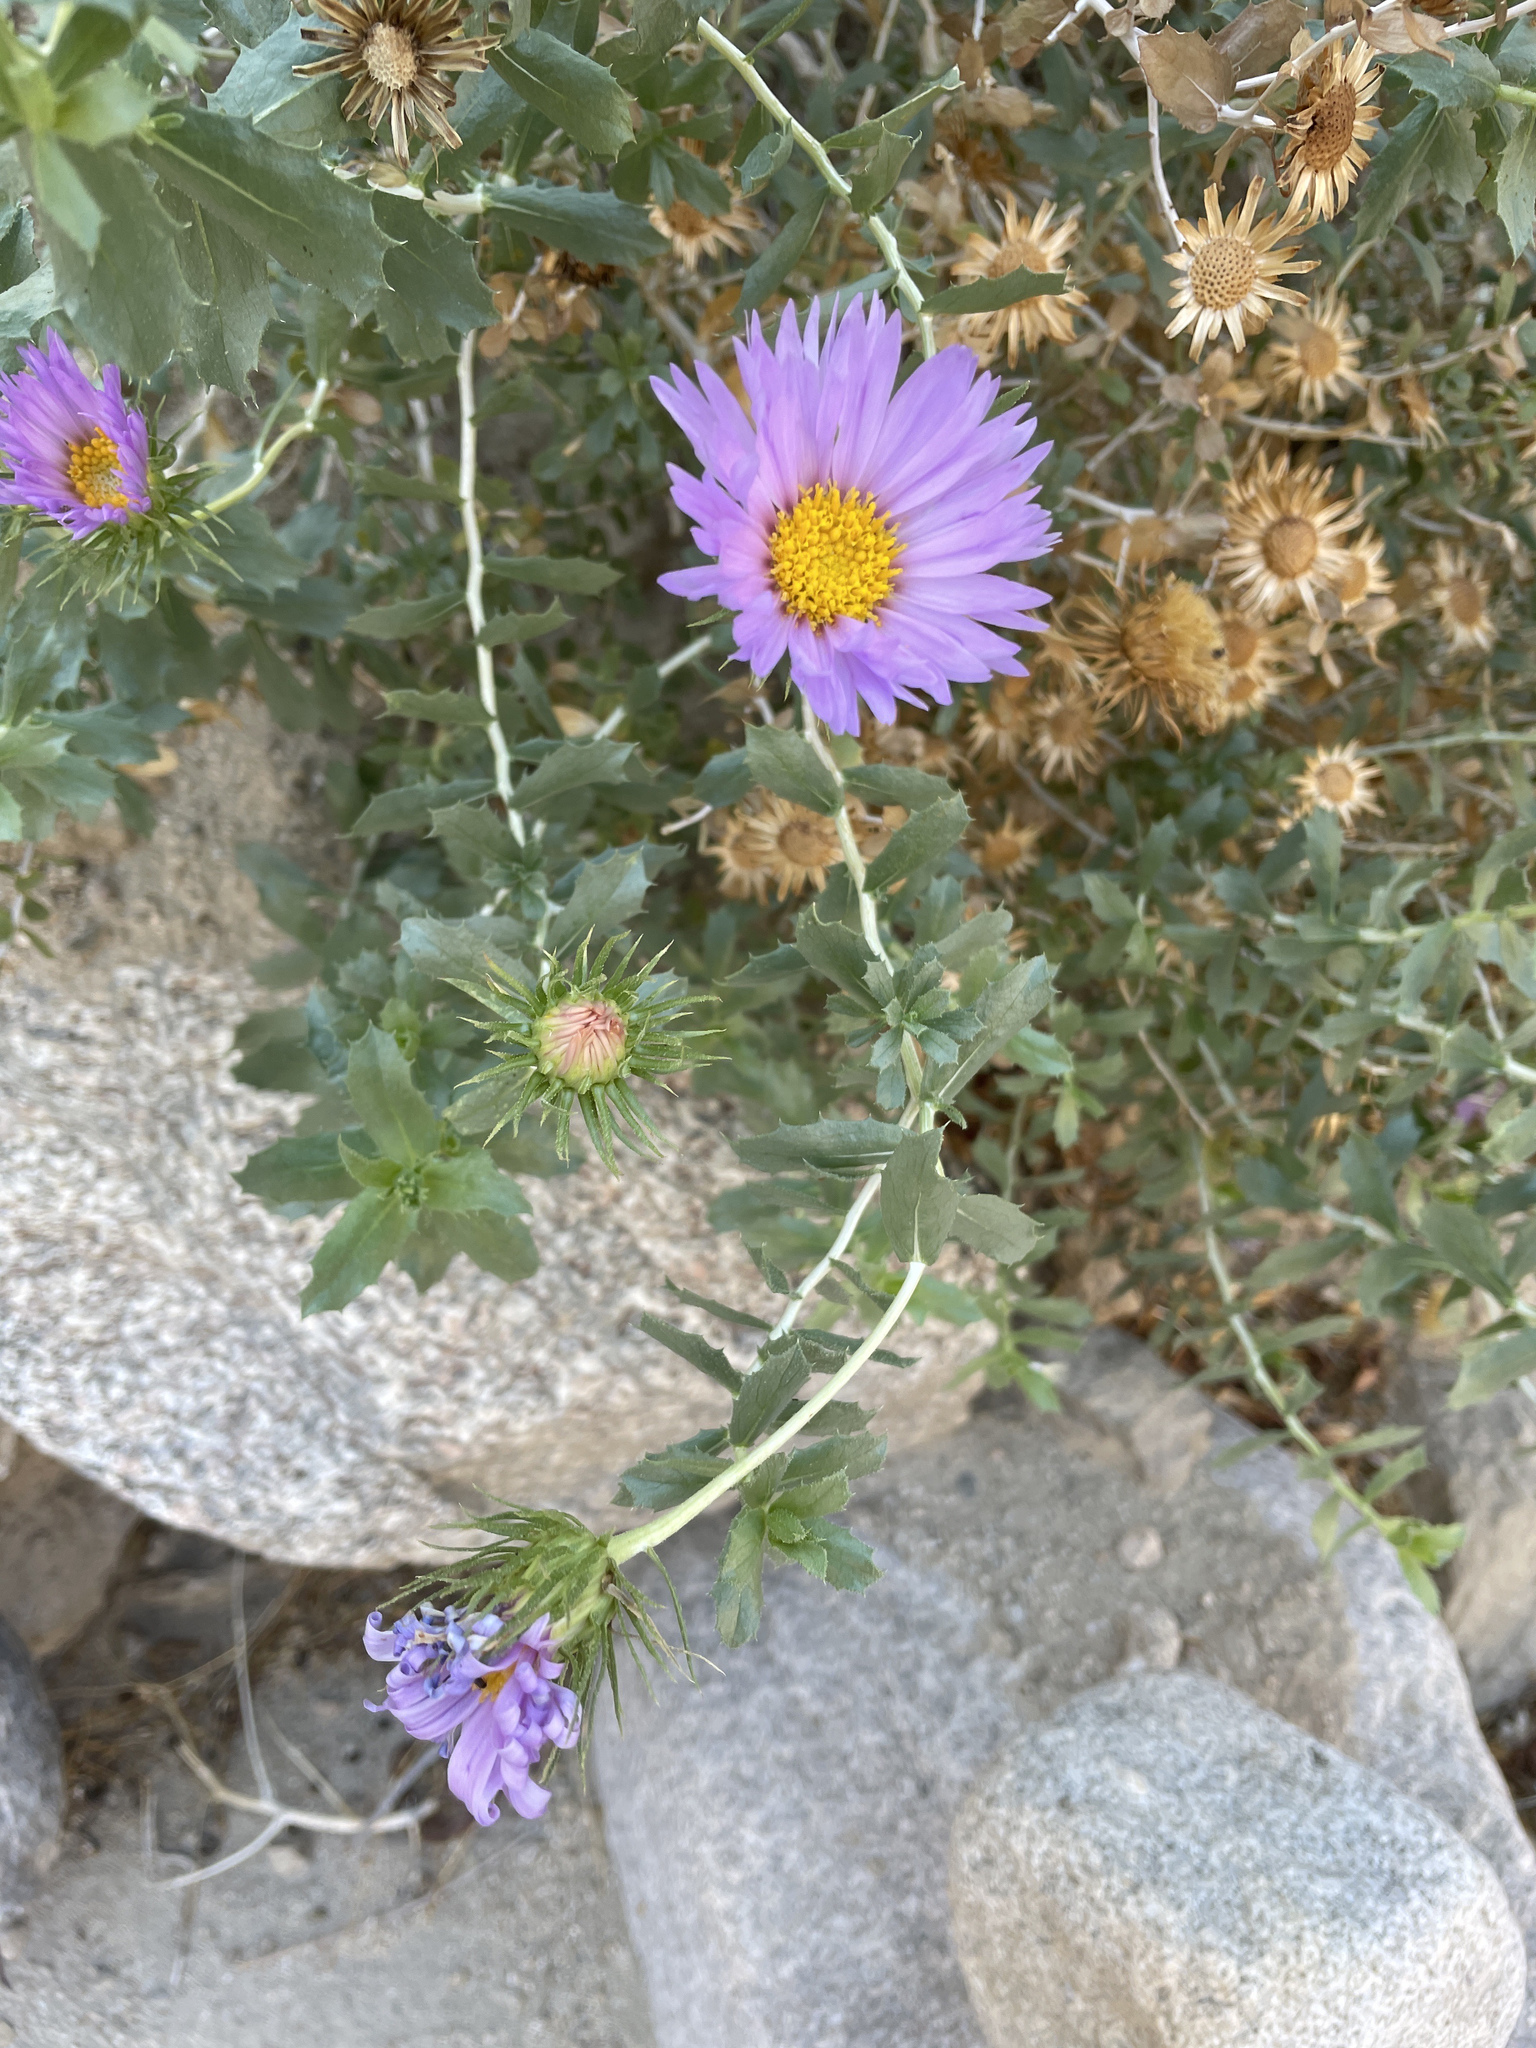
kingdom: Plantae
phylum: Tracheophyta
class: Magnoliopsida
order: Asterales
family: Asteraceae
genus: Xylorhiza
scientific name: Xylorhiza cognata
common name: Mecca woody-aster
